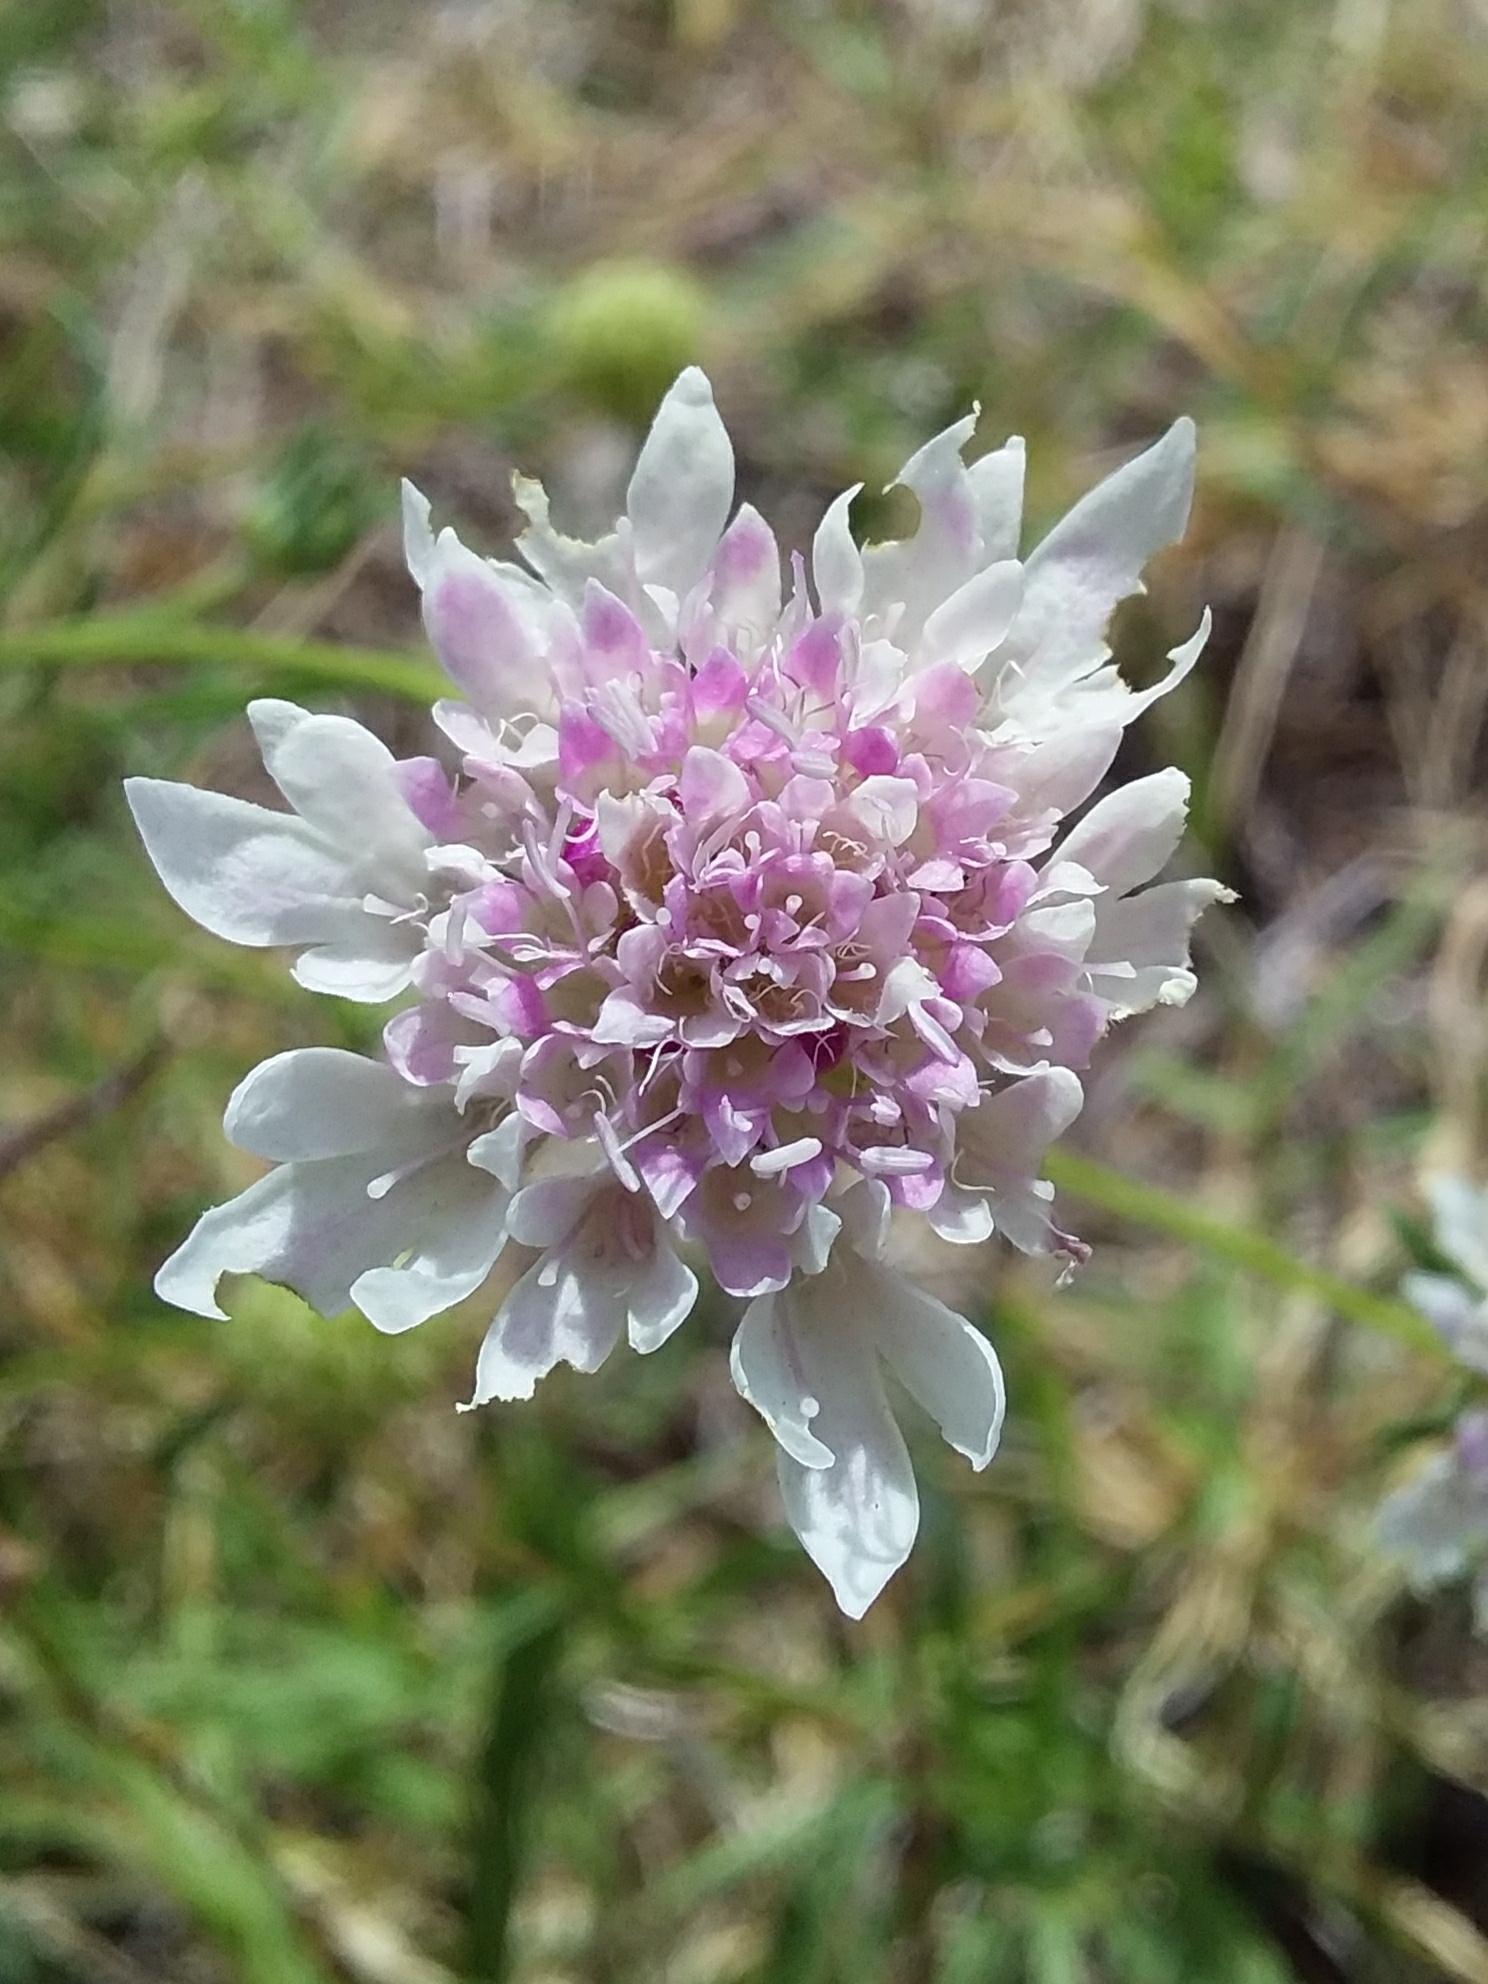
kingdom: Plantae
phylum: Tracheophyta
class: Magnoliopsida
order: Dipsacales
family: Caprifoliaceae
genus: Sixalix
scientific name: Sixalix atropurpurea
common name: Sweet scabious
